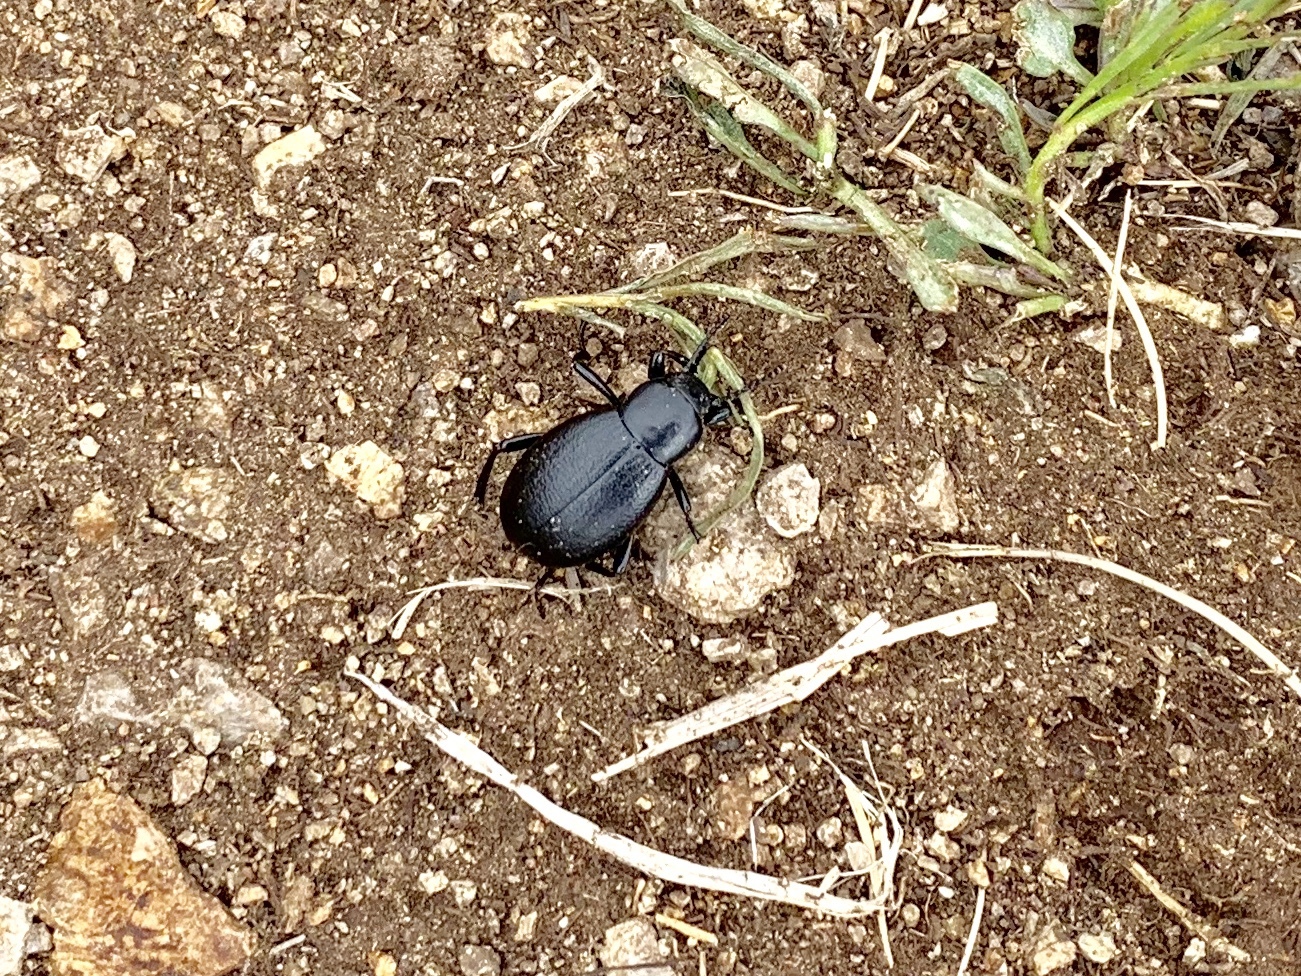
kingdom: Animalia
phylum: Arthropoda
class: Insecta
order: Coleoptera
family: Tenebrionidae
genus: Eleodes
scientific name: Eleodes extricata
